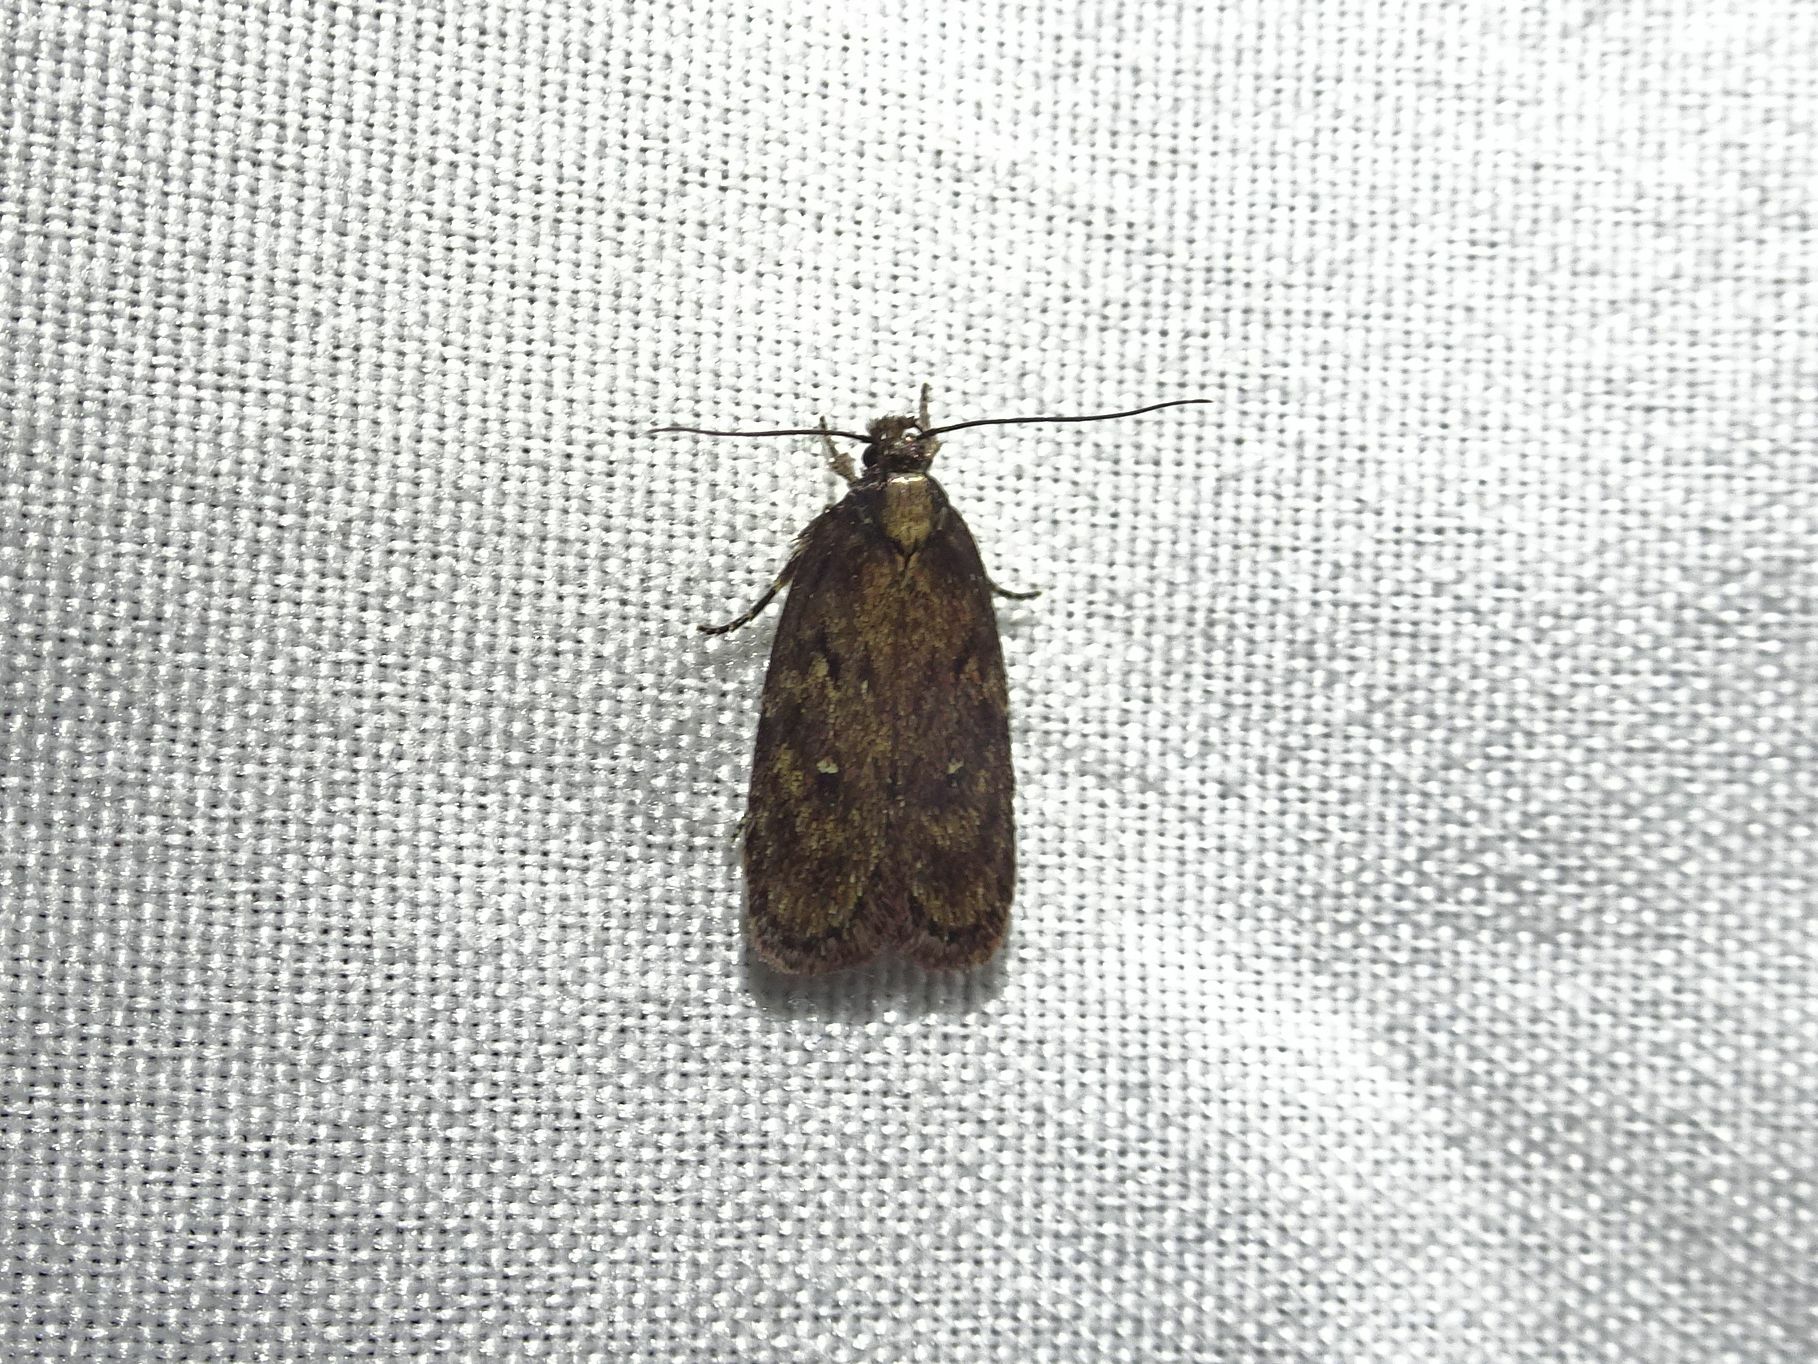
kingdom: Animalia
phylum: Arthropoda
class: Insecta
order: Lepidoptera
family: Depressariidae
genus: Depressaria
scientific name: Depressaria albipunctella
